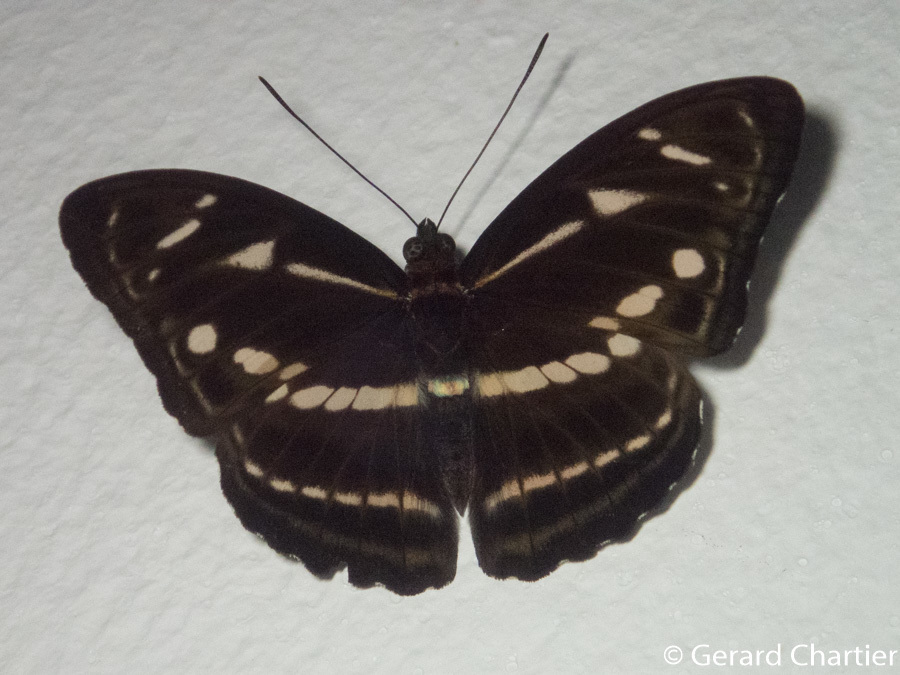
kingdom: Animalia
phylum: Arthropoda
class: Insecta
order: Lepidoptera
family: Nymphalidae
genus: Parathyma
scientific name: Parathyma kanwa
